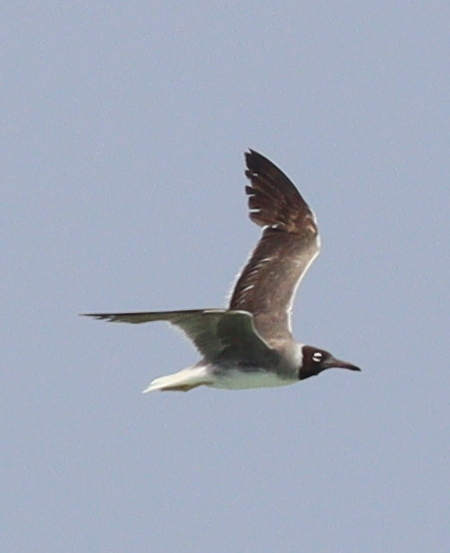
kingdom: Animalia
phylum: Chordata
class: Aves
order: Charadriiformes
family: Laridae
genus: Ichthyaetus
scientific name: Ichthyaetus leucophthalmus
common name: White-eyed gull
